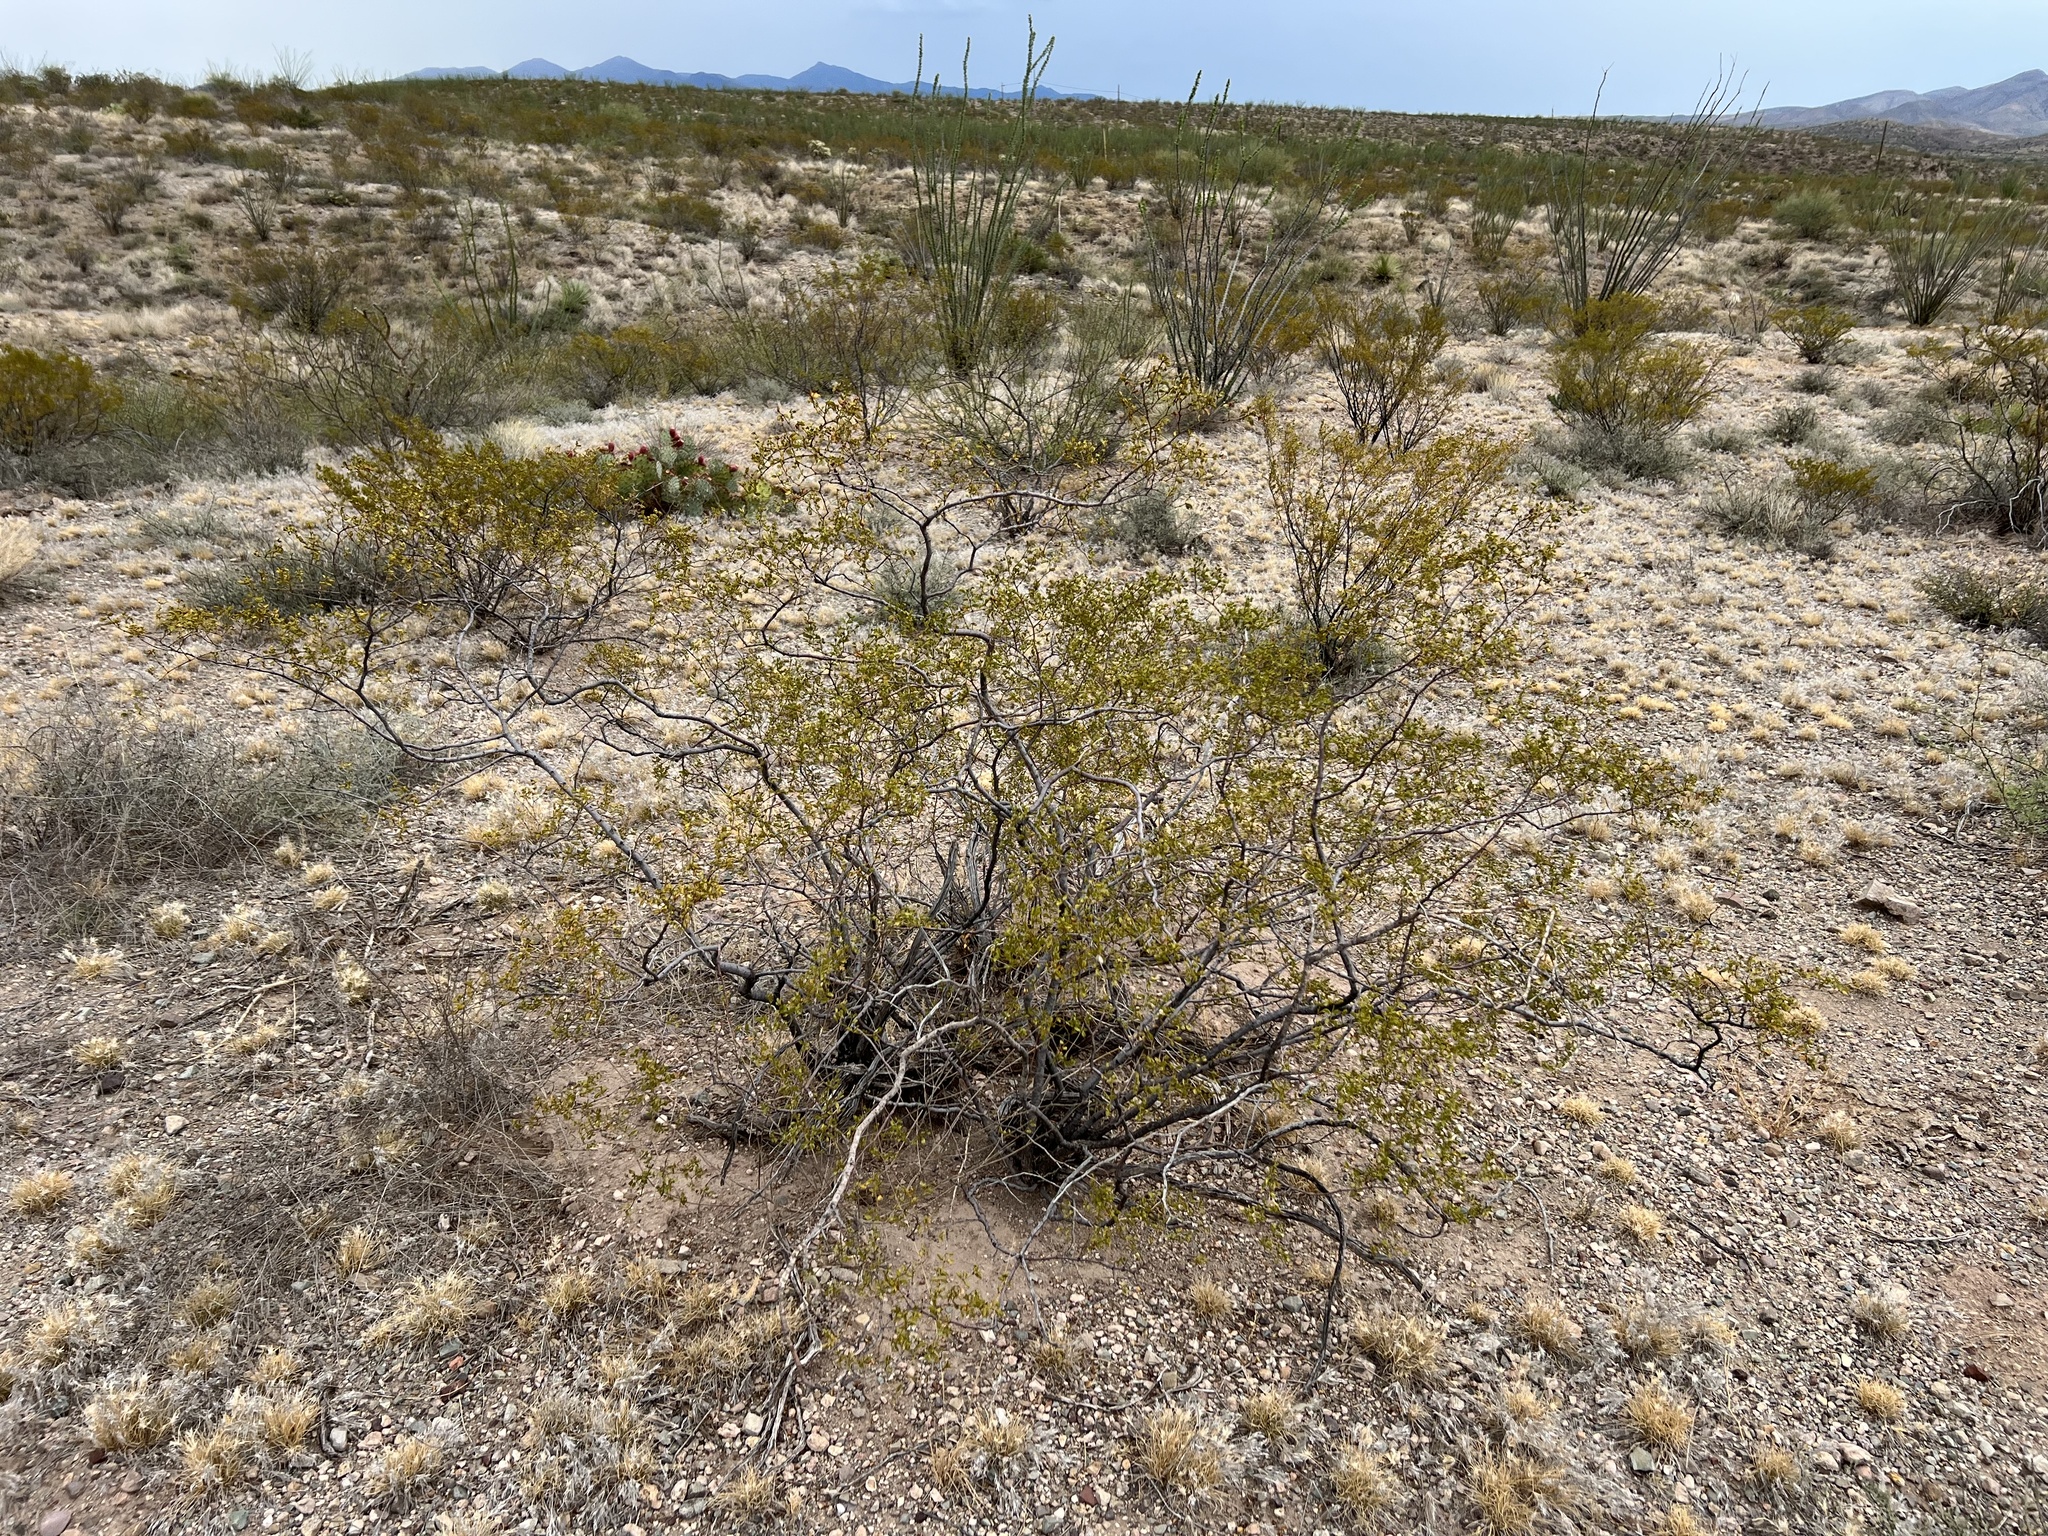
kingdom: Plantae
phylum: Tracheophyta
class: Magnoliopsida
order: Zygophyllales
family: Zygophyllaceae
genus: Larrea
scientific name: Larrea tridentata
